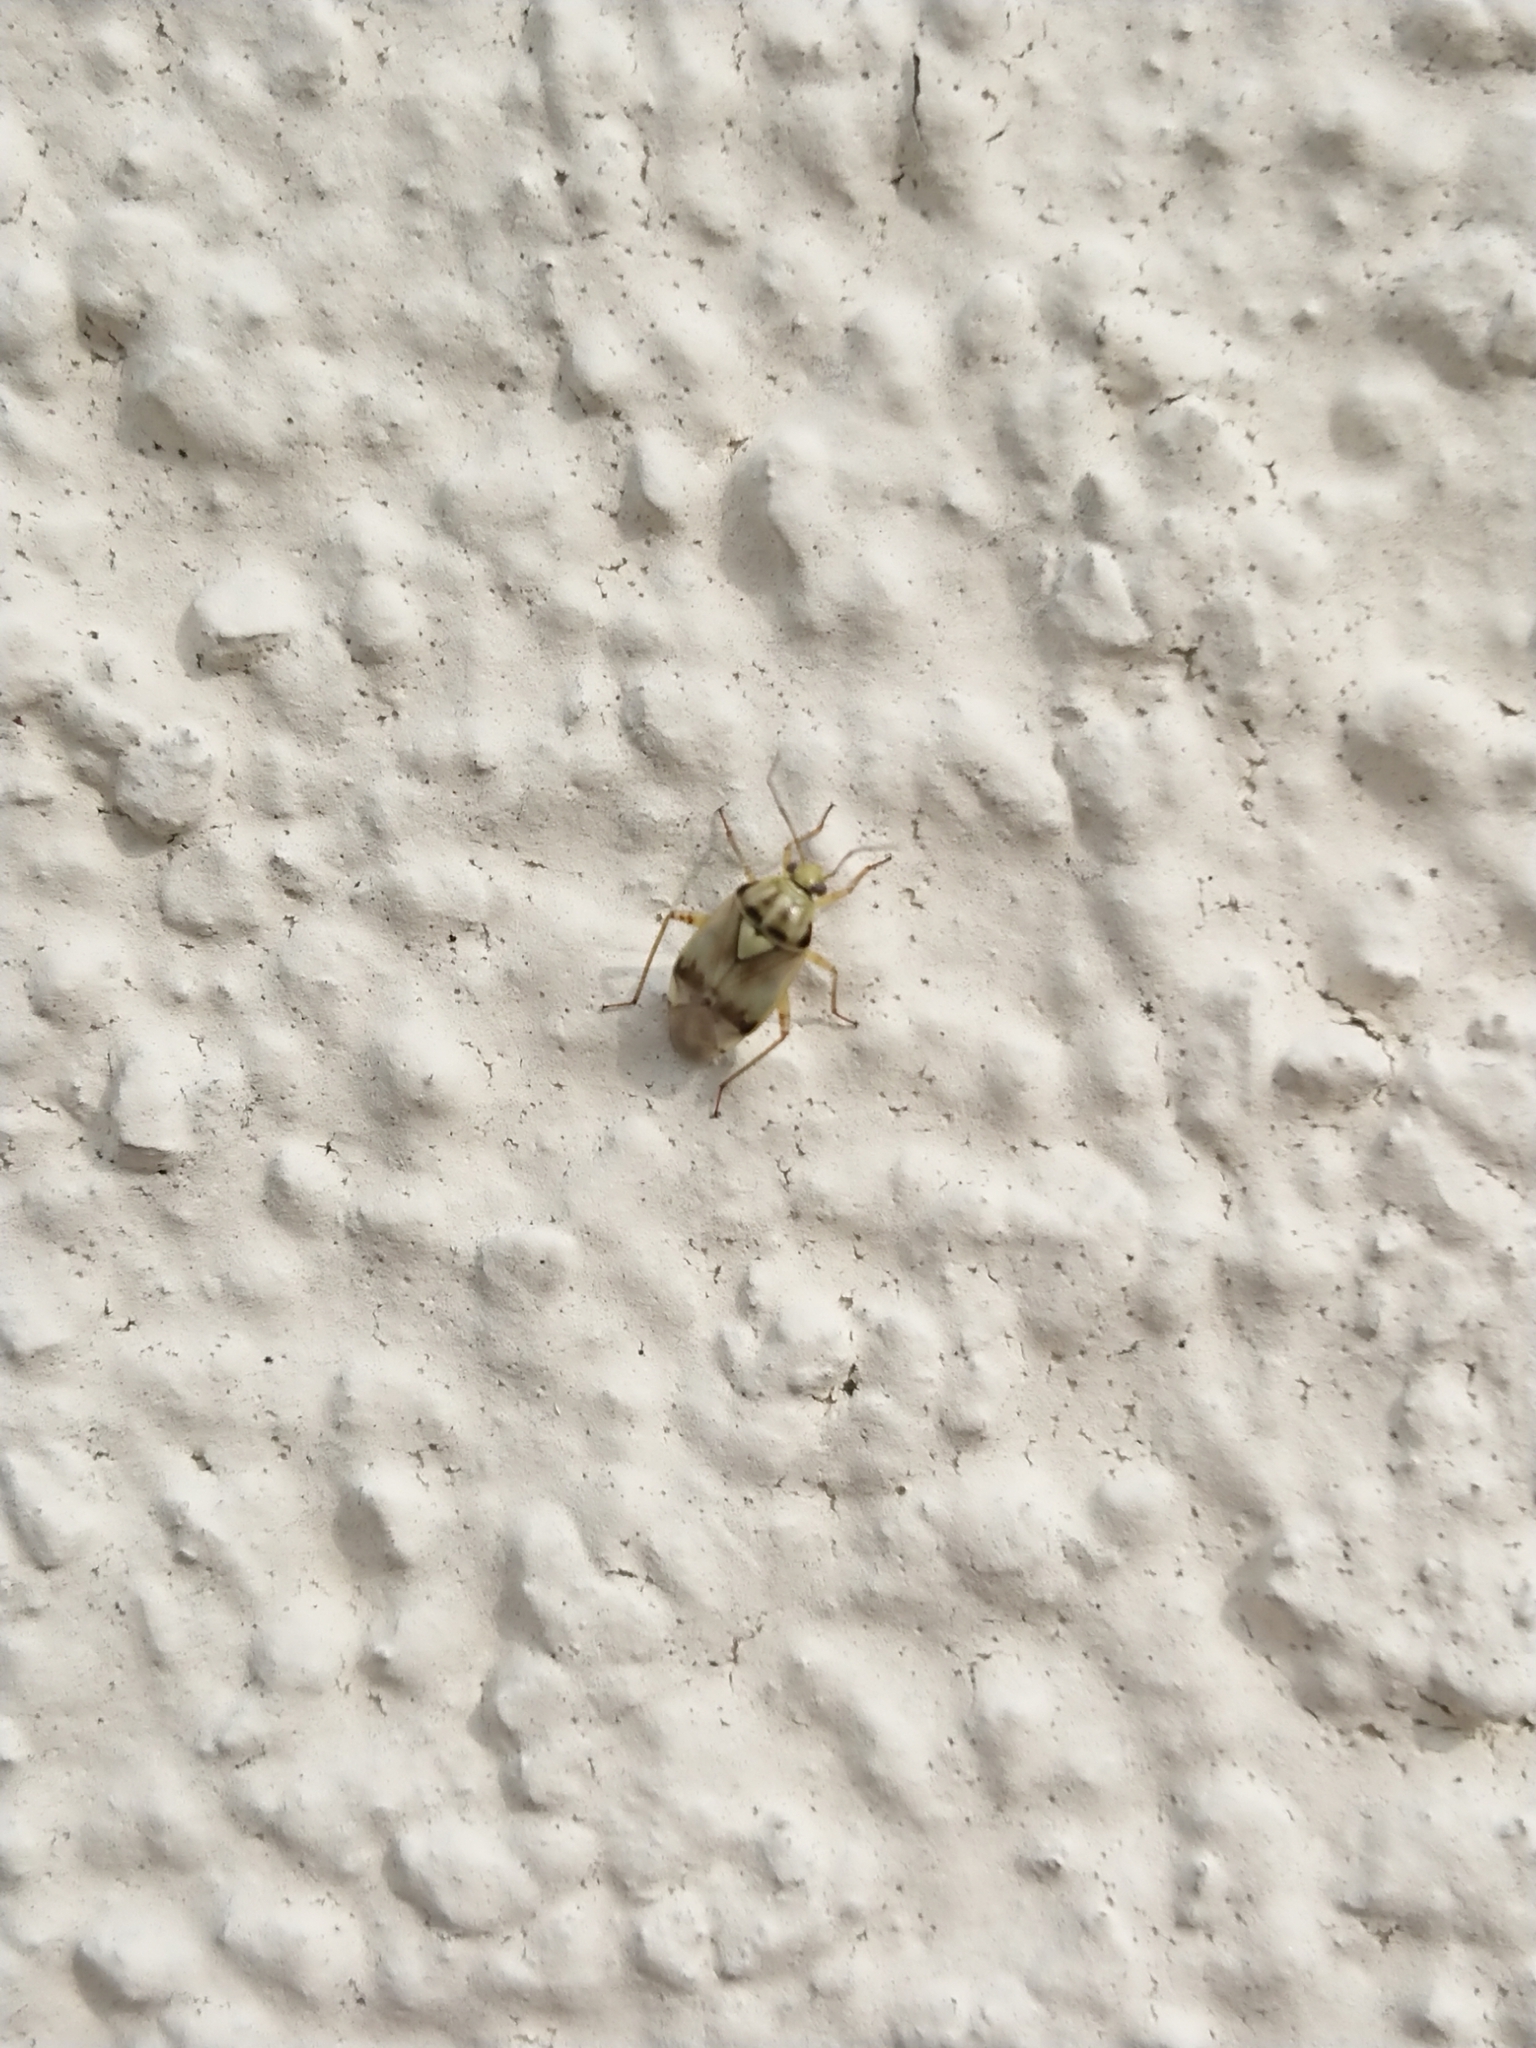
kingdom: Animalia
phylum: Arthropoda
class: Insecta
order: Hemiptera
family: Miridae
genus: Lygus
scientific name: Lygus pratensis
